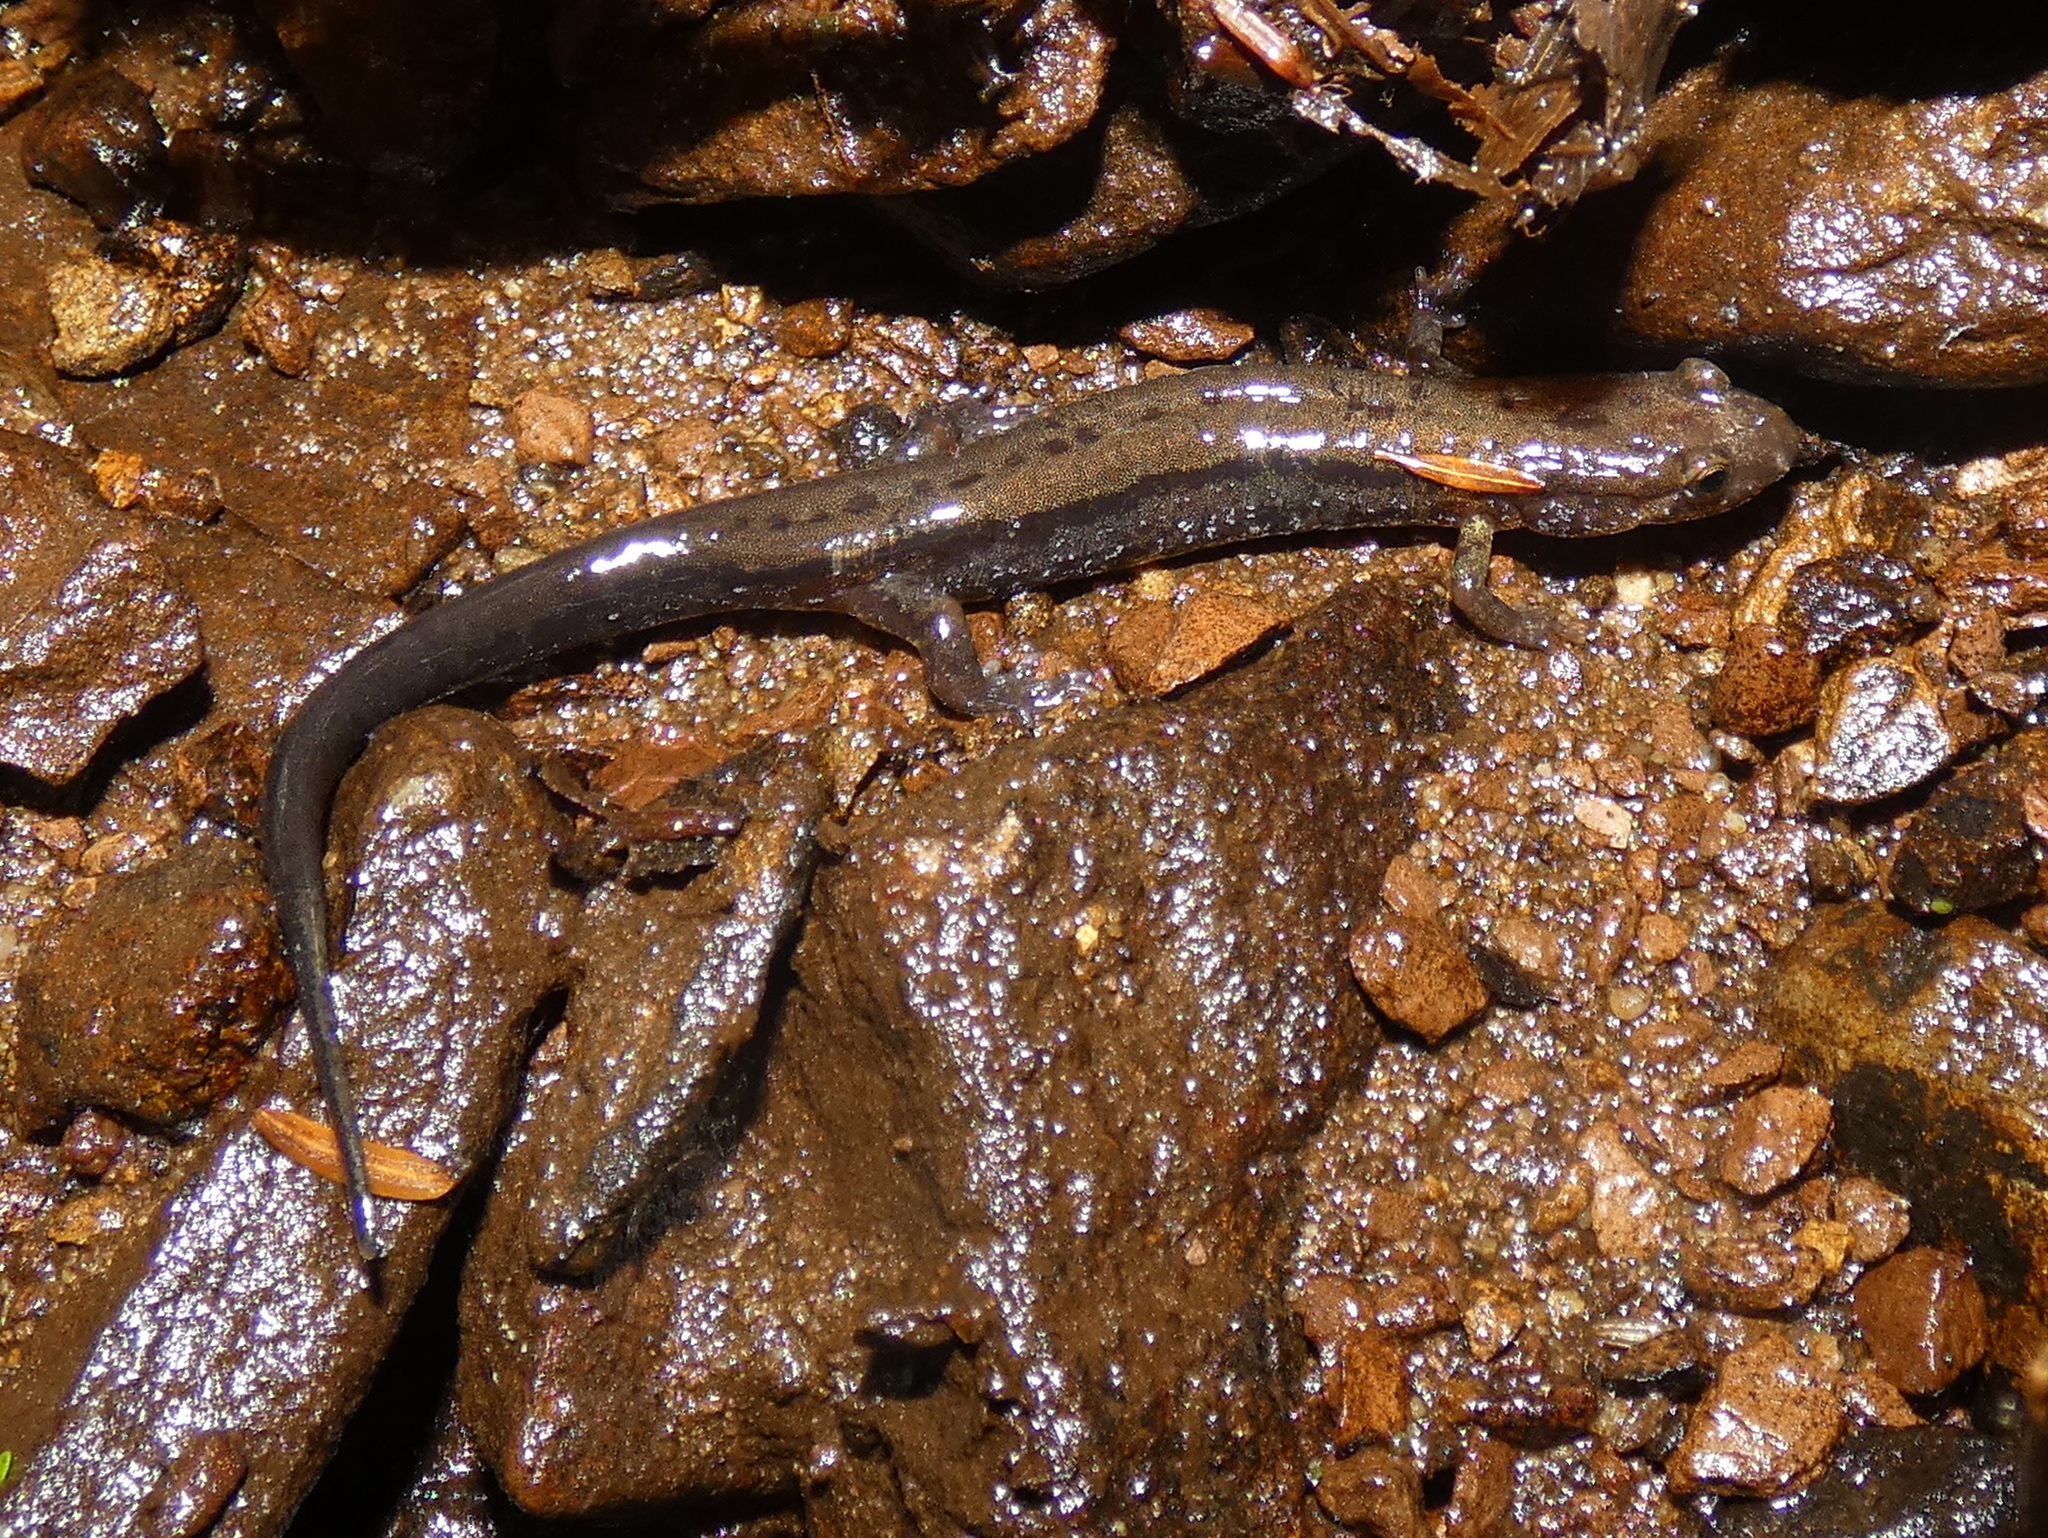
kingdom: Animalia
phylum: Chordata
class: Amphibia
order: Caudata
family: Plethodontidae
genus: Desmognathus
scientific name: Desmognathus ochrophaeus
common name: Allegheny mountain dusky salamander
